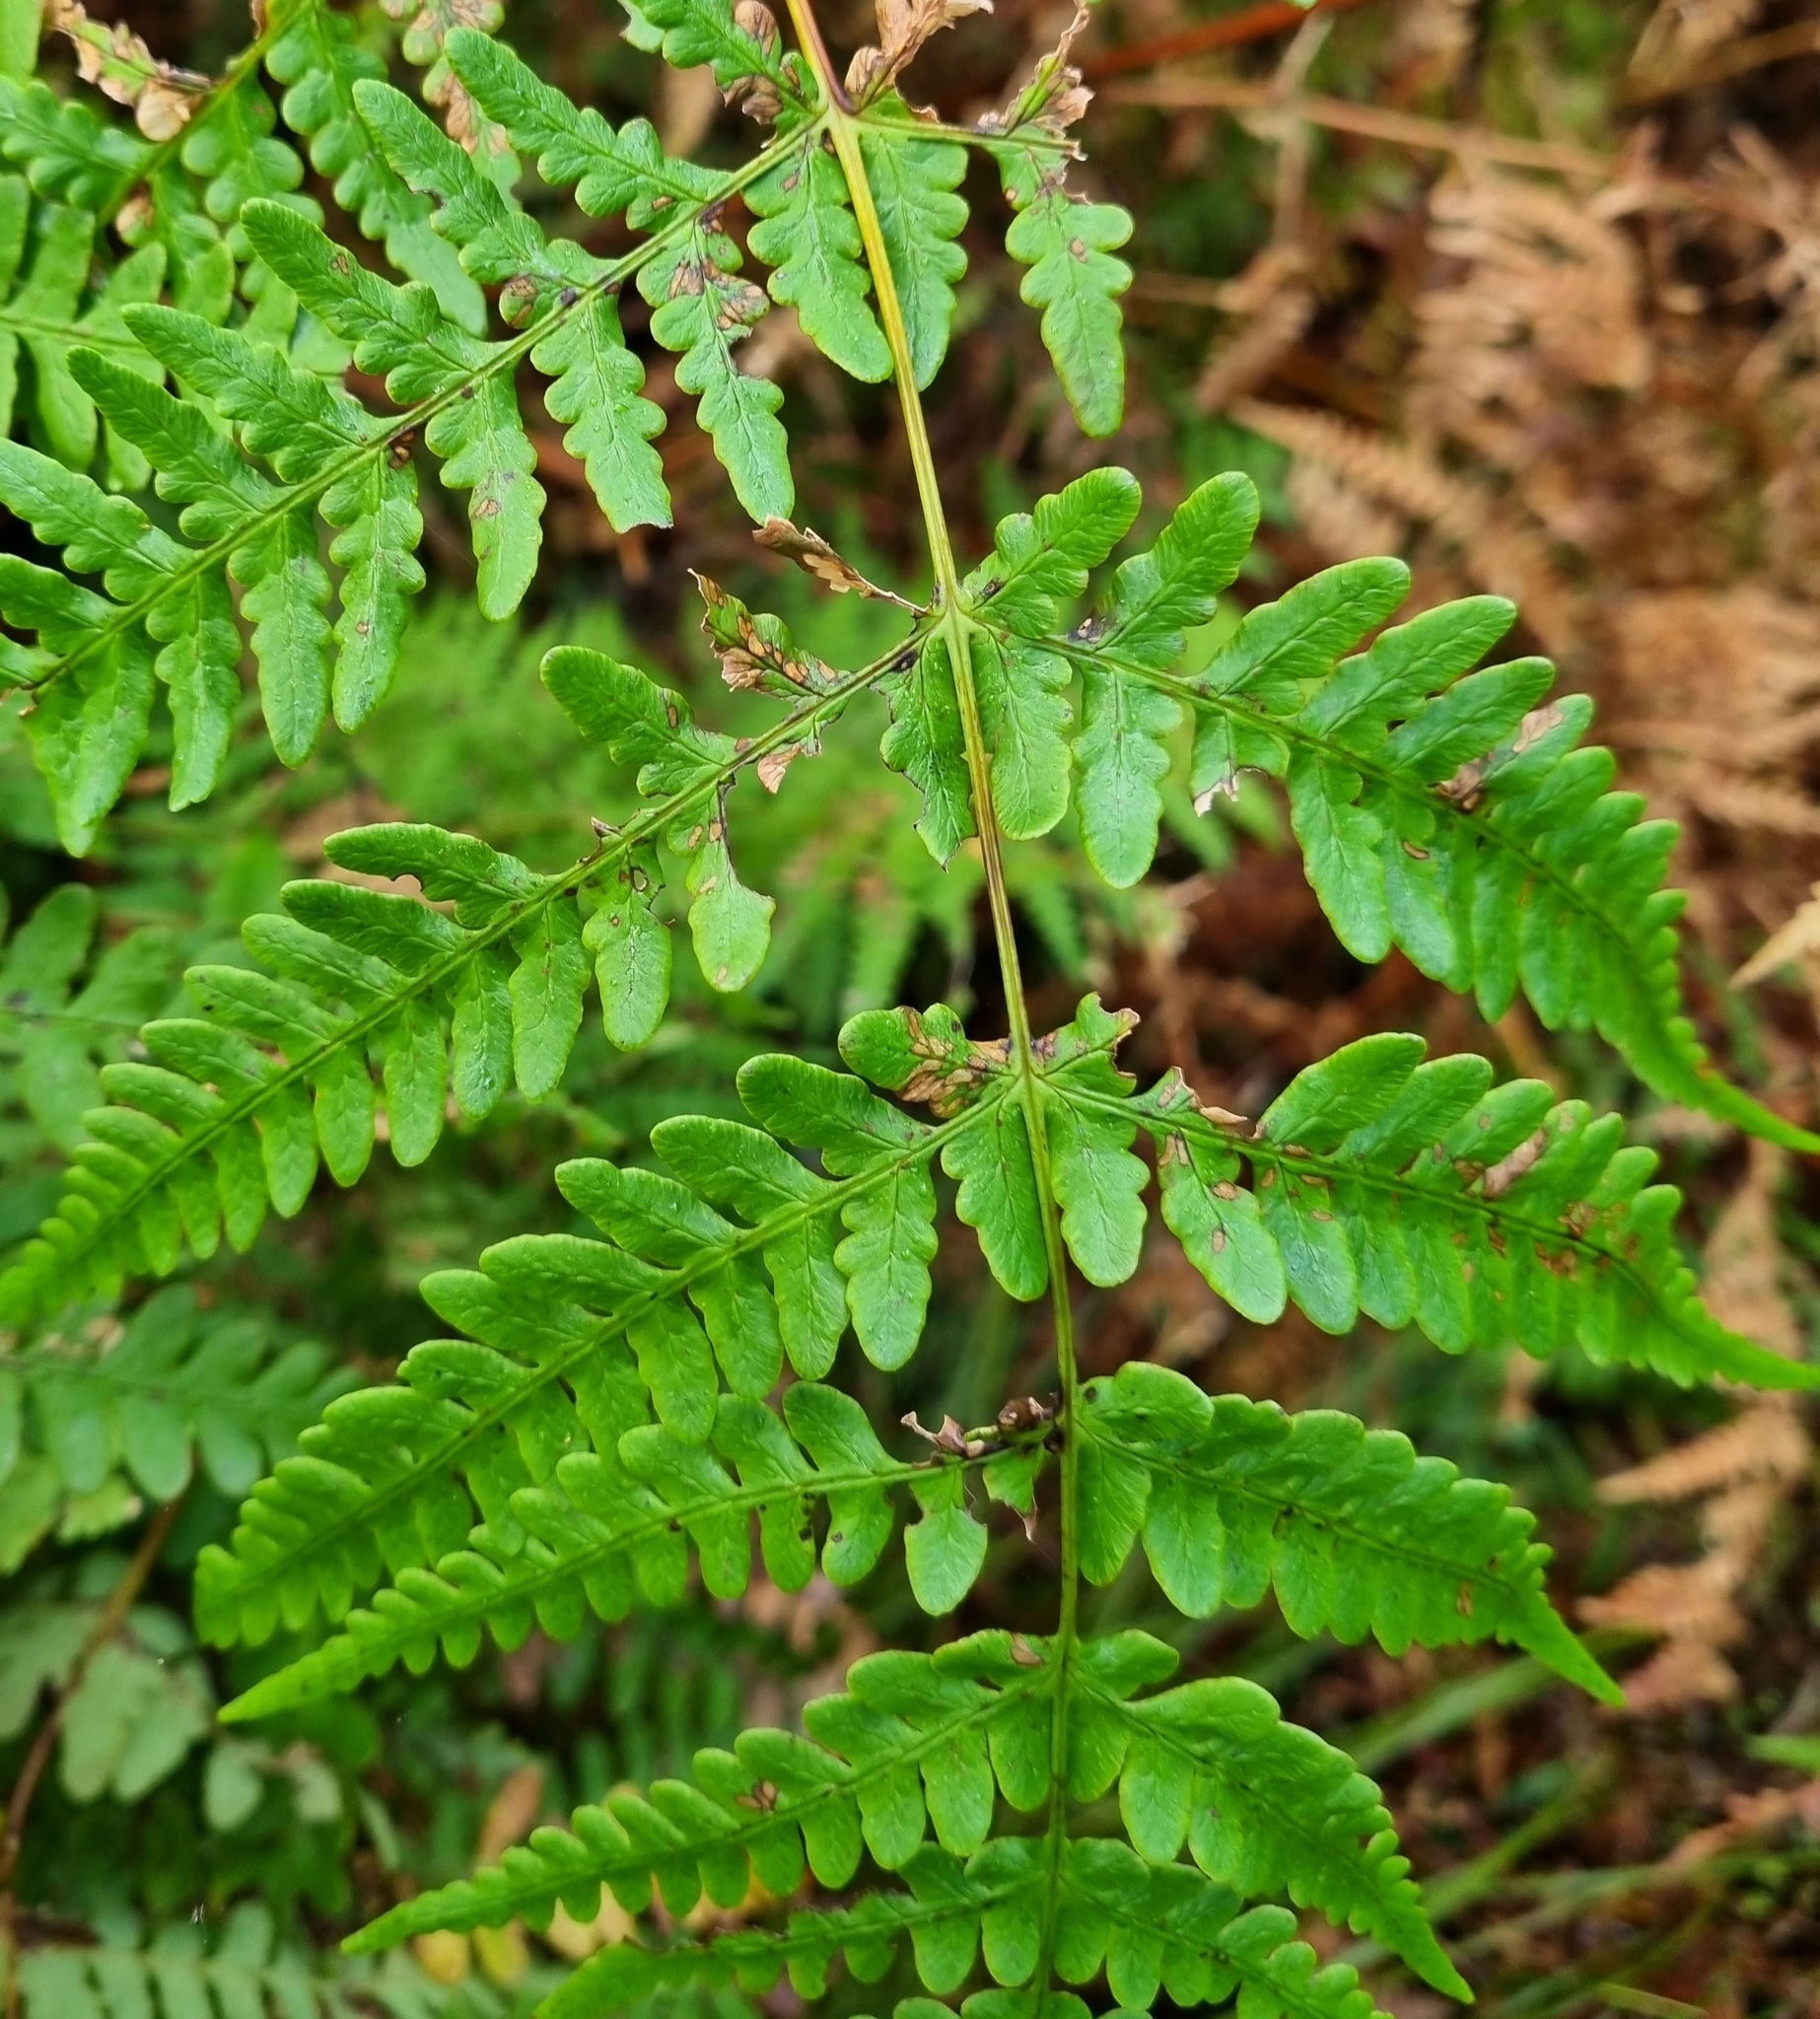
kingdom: Plantae
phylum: Tracheophyta
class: Polypodiopsida
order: Polypodiales
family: Dennstaedtiaceae
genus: Histiopteris
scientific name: Histiopteris incisa
